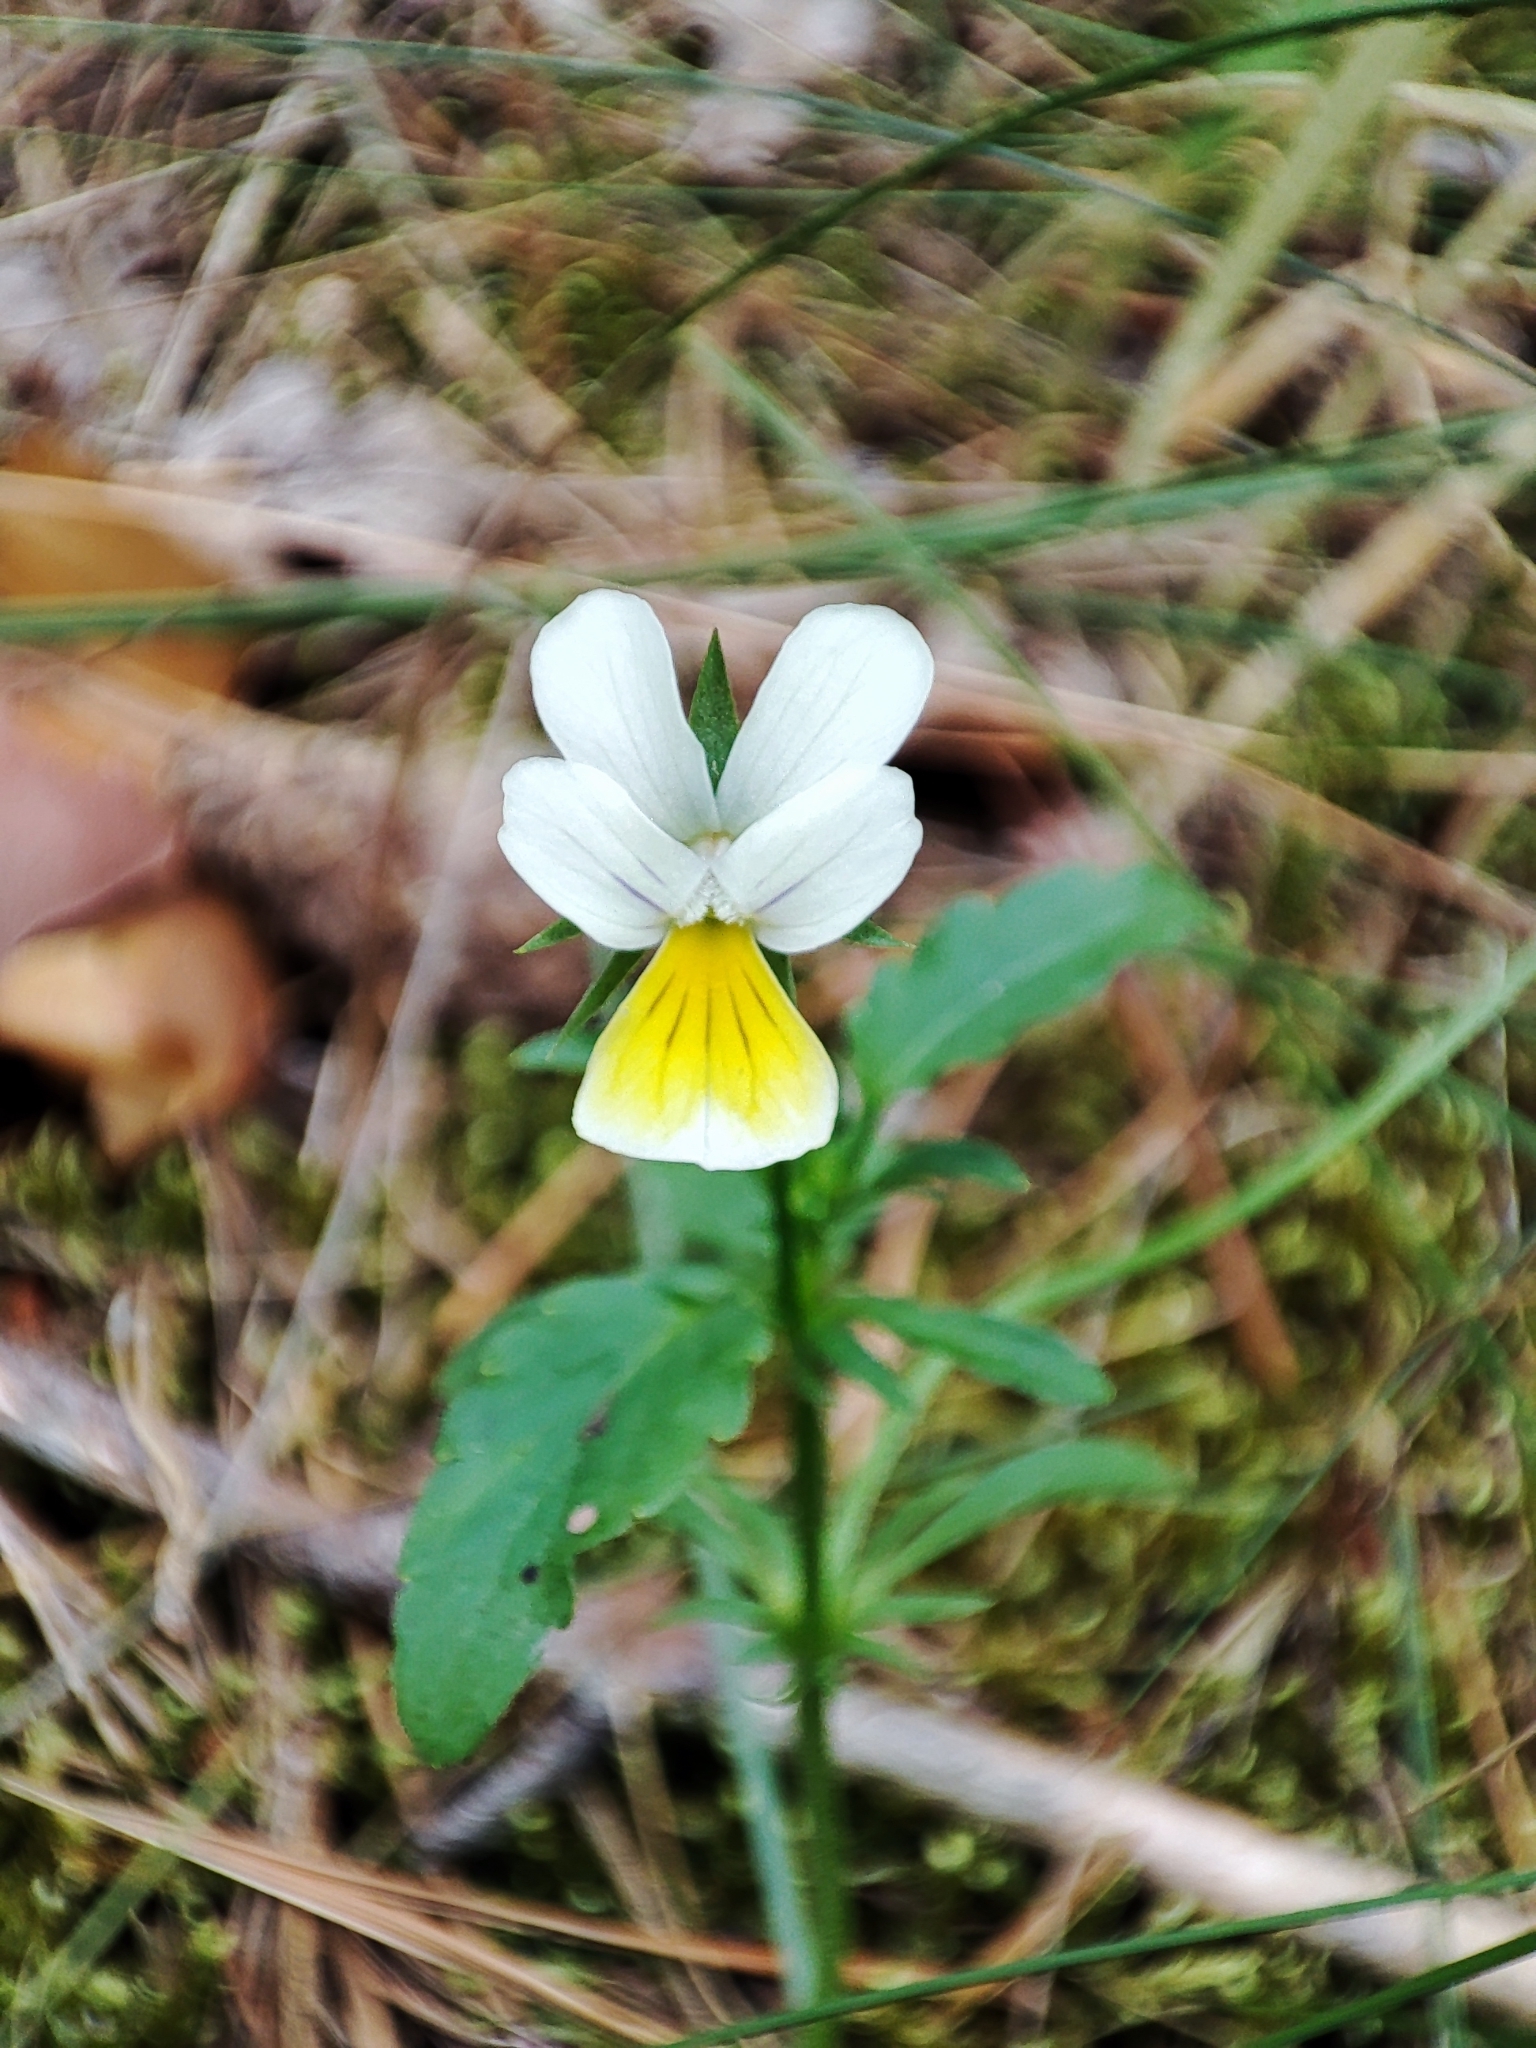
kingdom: Plantae
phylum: Tracheophyta
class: Magnoliopsida
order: Malpighiales
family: Violaceae
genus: Viola
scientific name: Viola arvensis
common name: Field pansy
